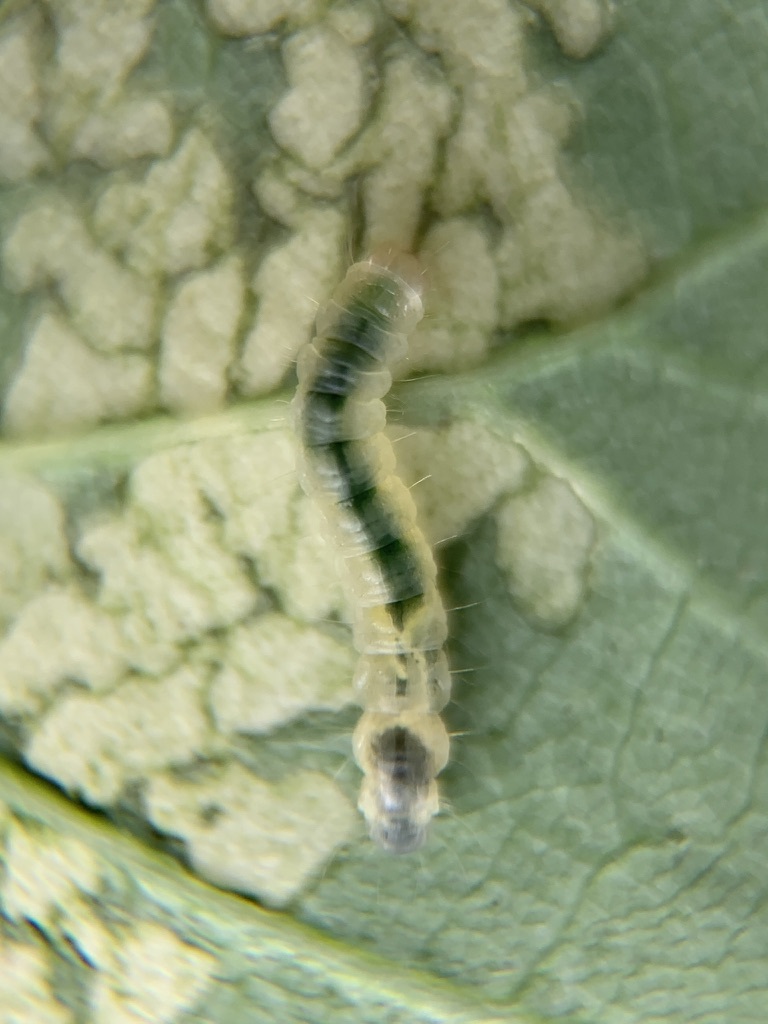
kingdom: Animalia
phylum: Arthropoda
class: Insecta
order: Lepidoptera
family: Gracillariidae
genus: Caloptilia
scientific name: Caloptilia rhoifoliella
